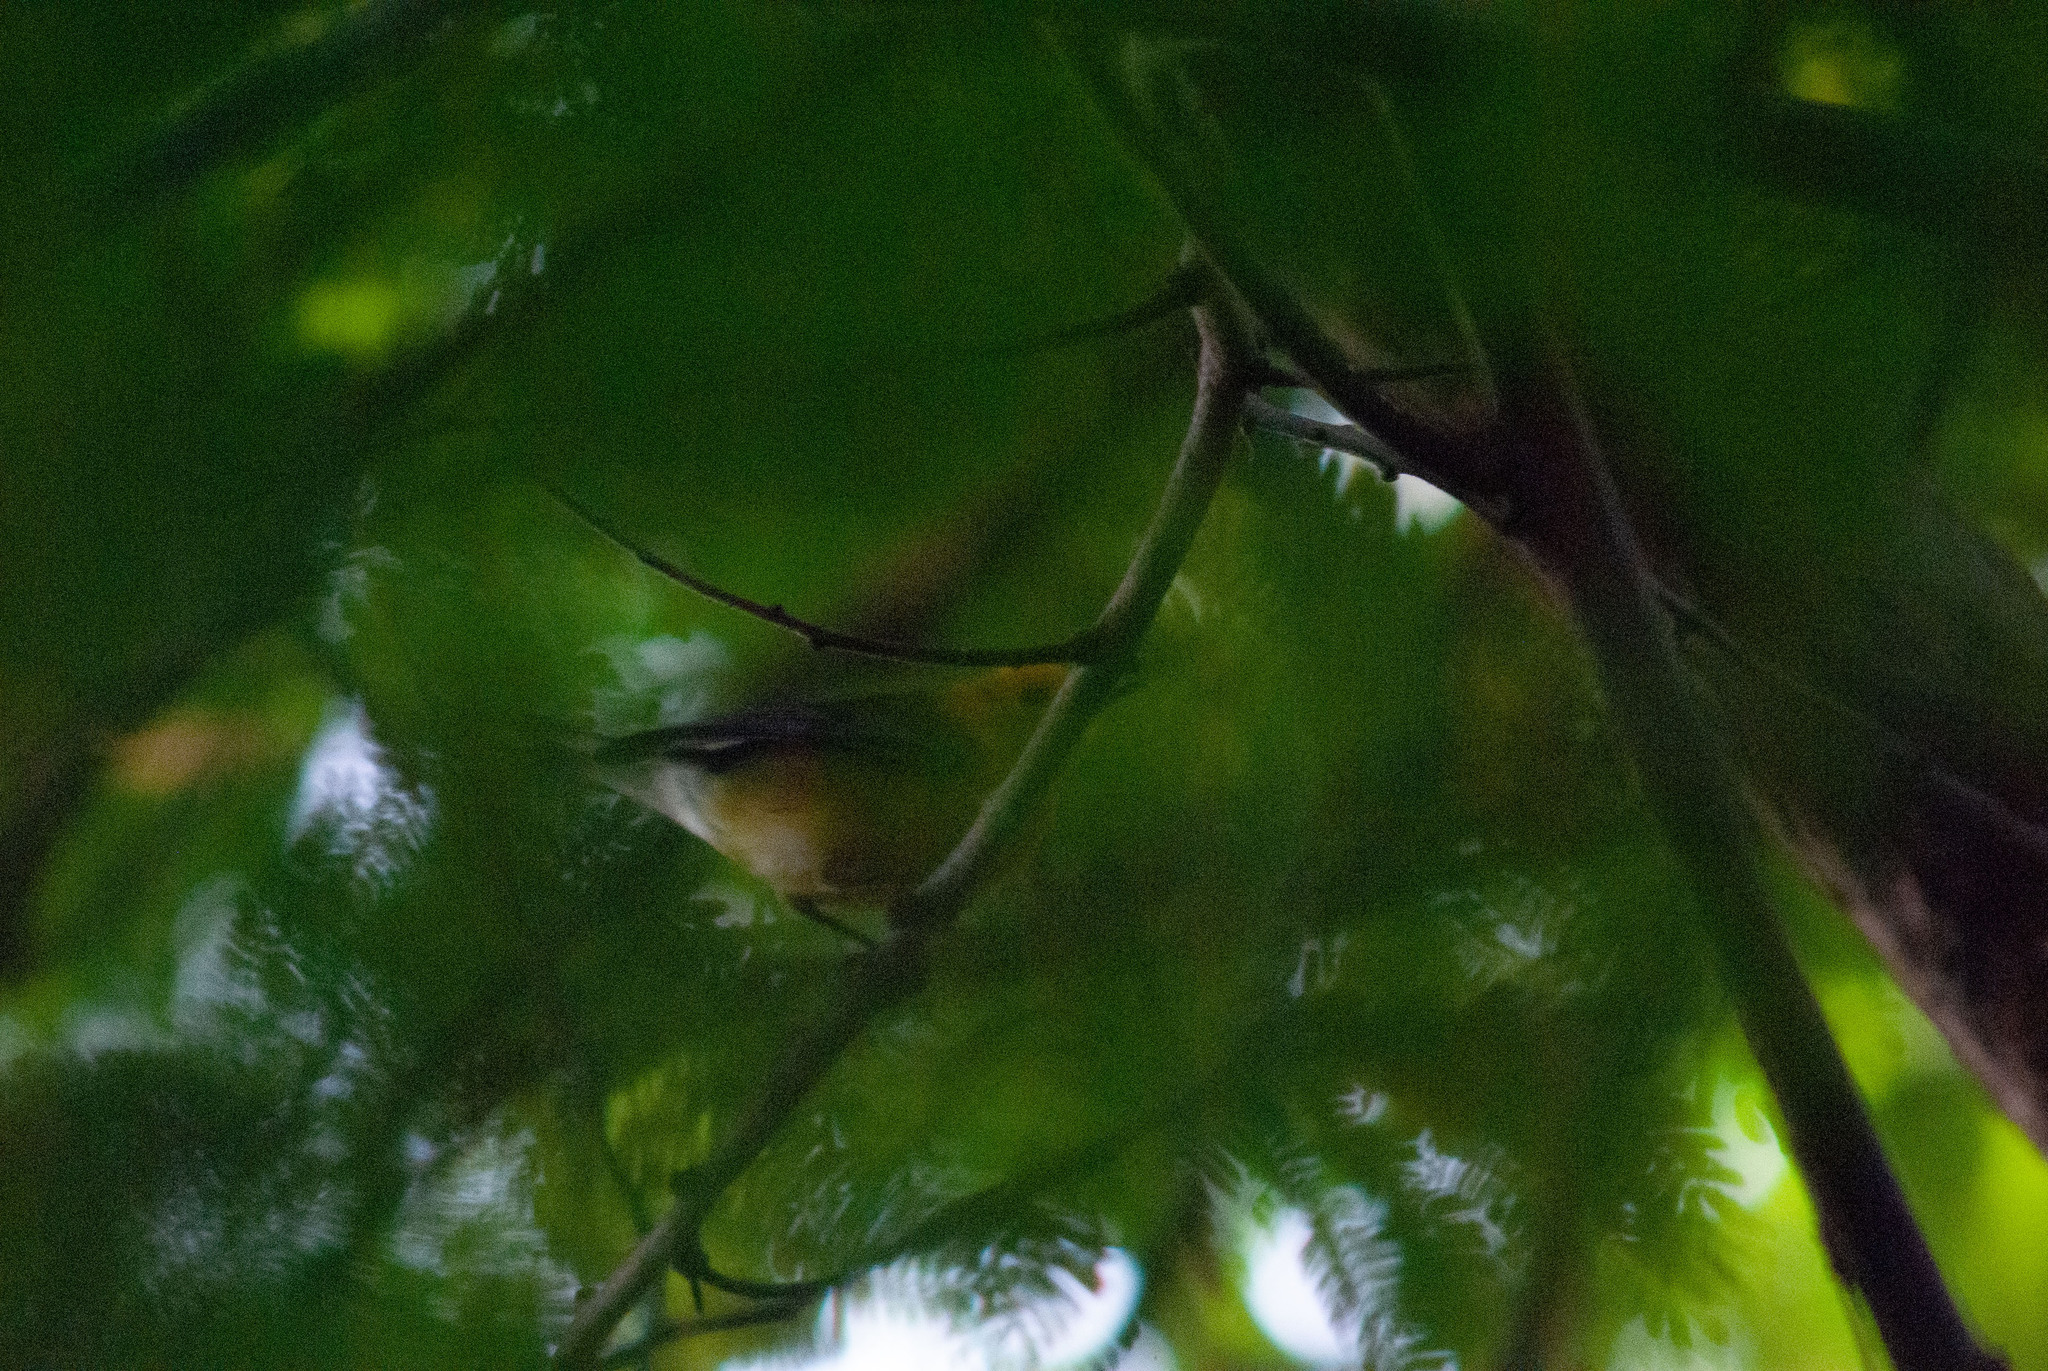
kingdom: Animalia
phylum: Chordata
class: Aves
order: Passeriformes
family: Parulidae
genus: Protonotaria
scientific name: Protonotaria citrea
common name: Prothonotary warbler
